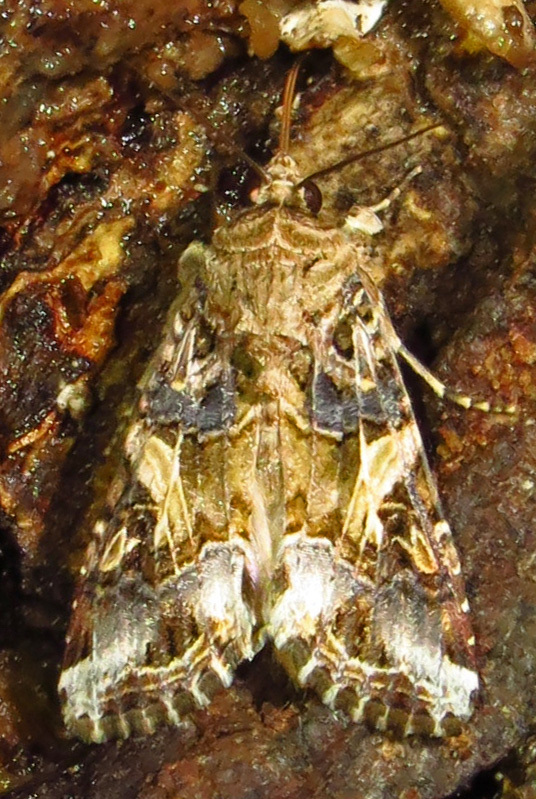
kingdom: Animalia
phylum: Arthropoda
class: Insecta
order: Lepidoptera
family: Noctuidae
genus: Spodoptera
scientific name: Spodoptera ornithogalli
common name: Yellow-striped armyworm
